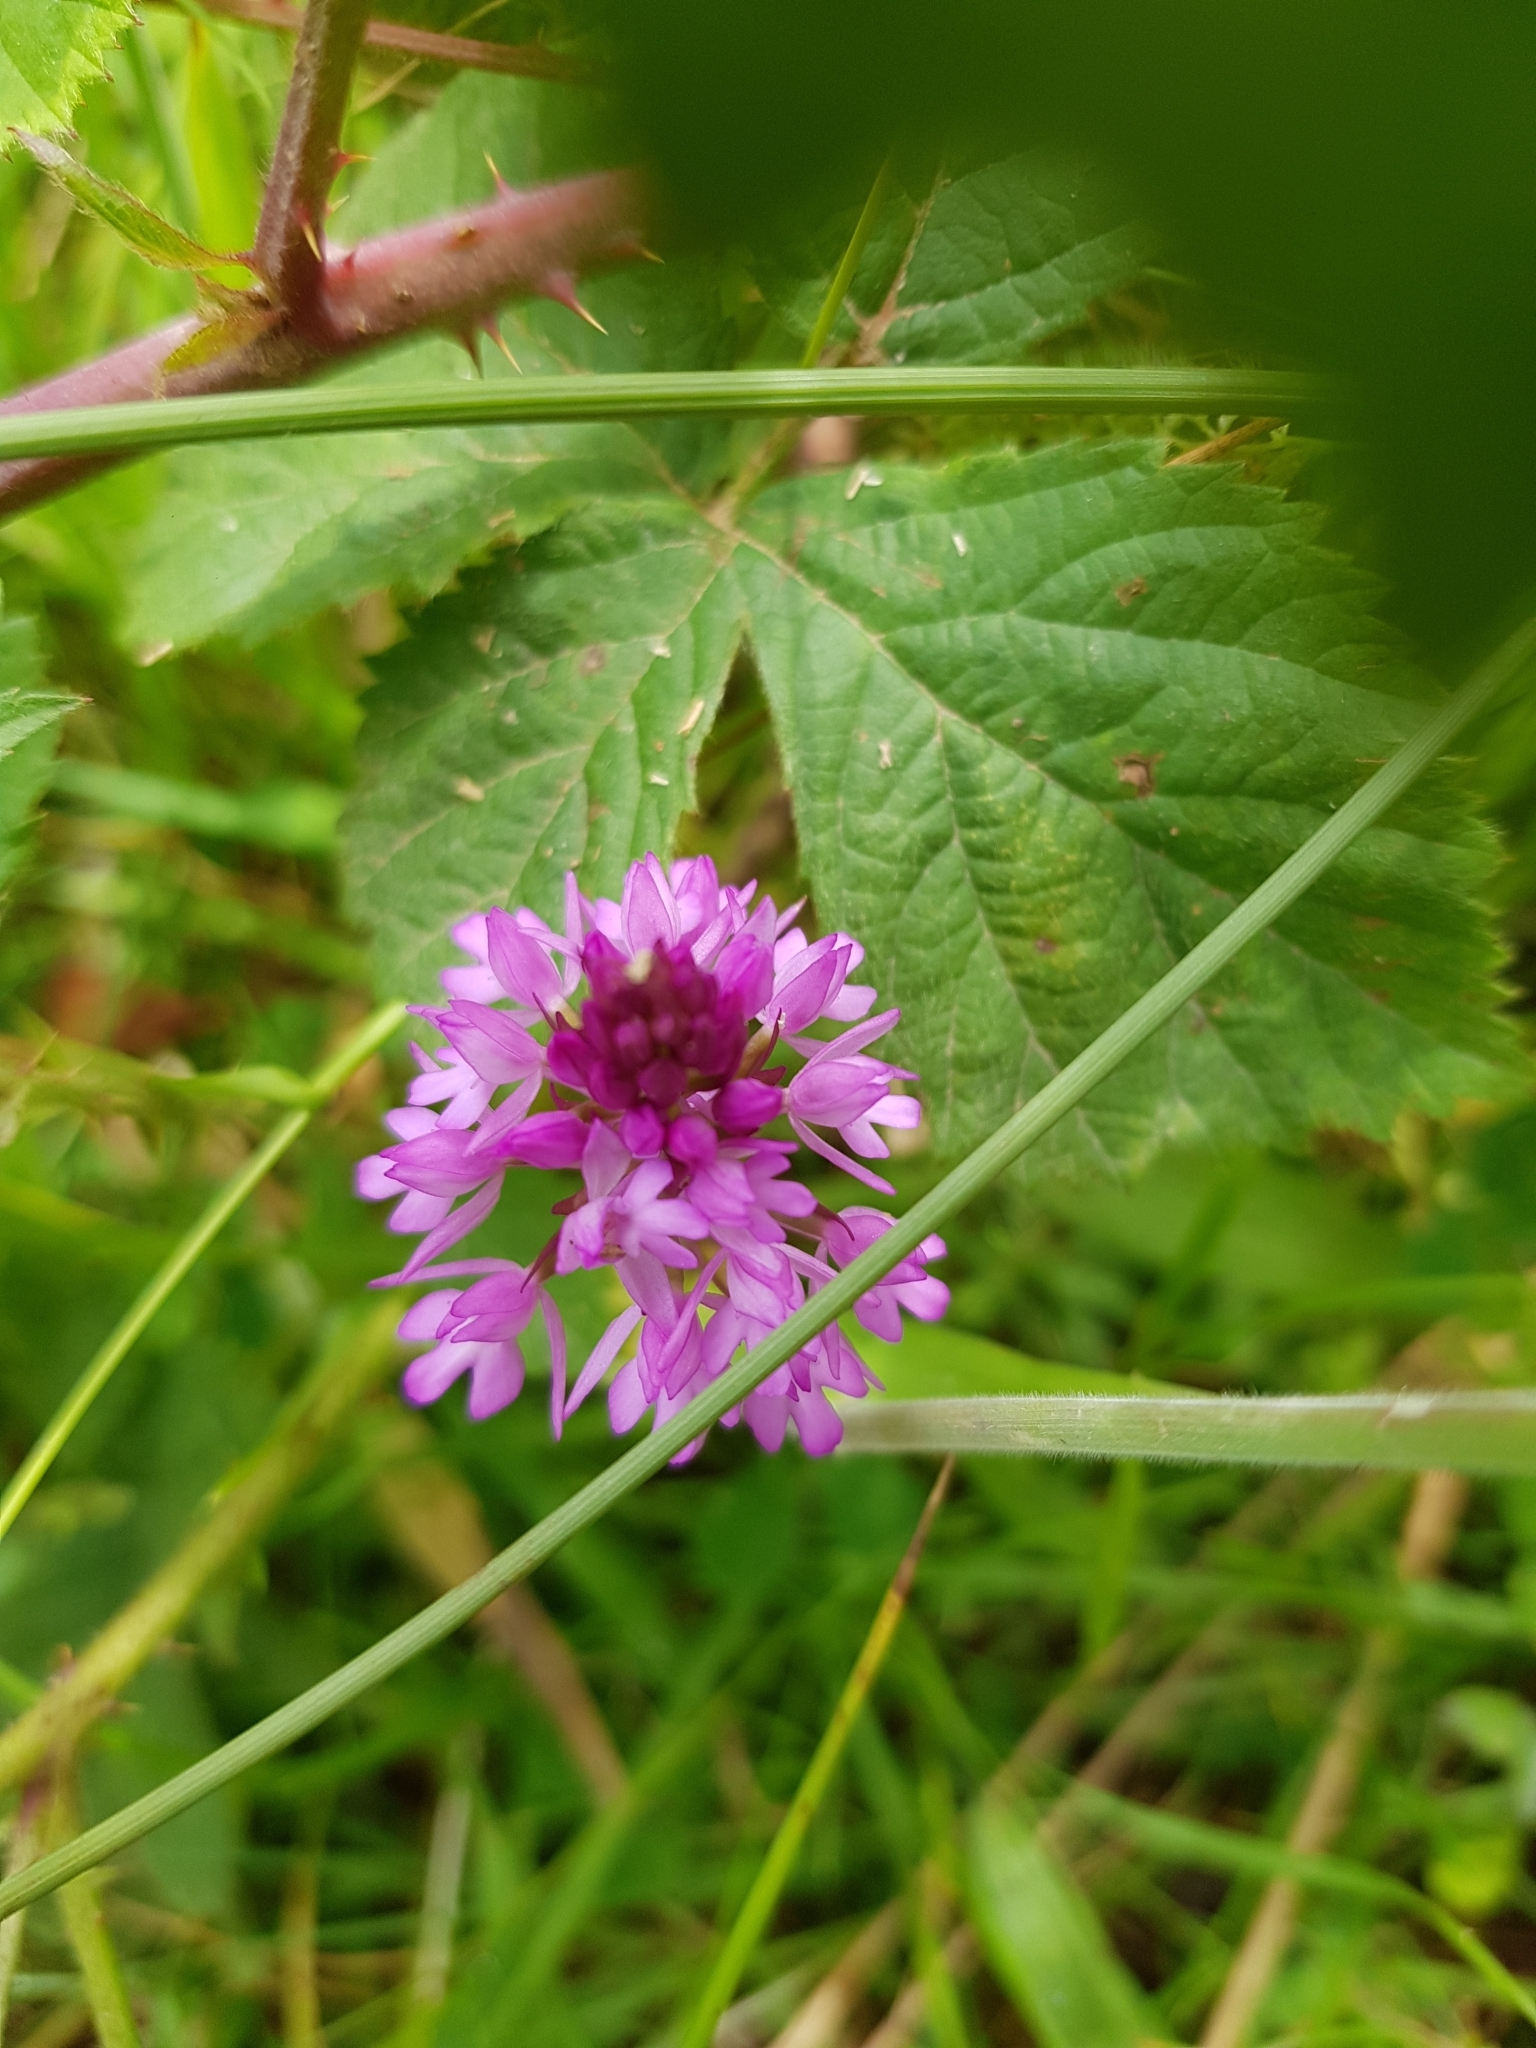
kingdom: Plantae
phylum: Tracheophyta
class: Liliopsida
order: Asparagales
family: Orchidaceae
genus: Anacamptis
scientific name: Anacamptis pyramidalis
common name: Pyramidal orchid
